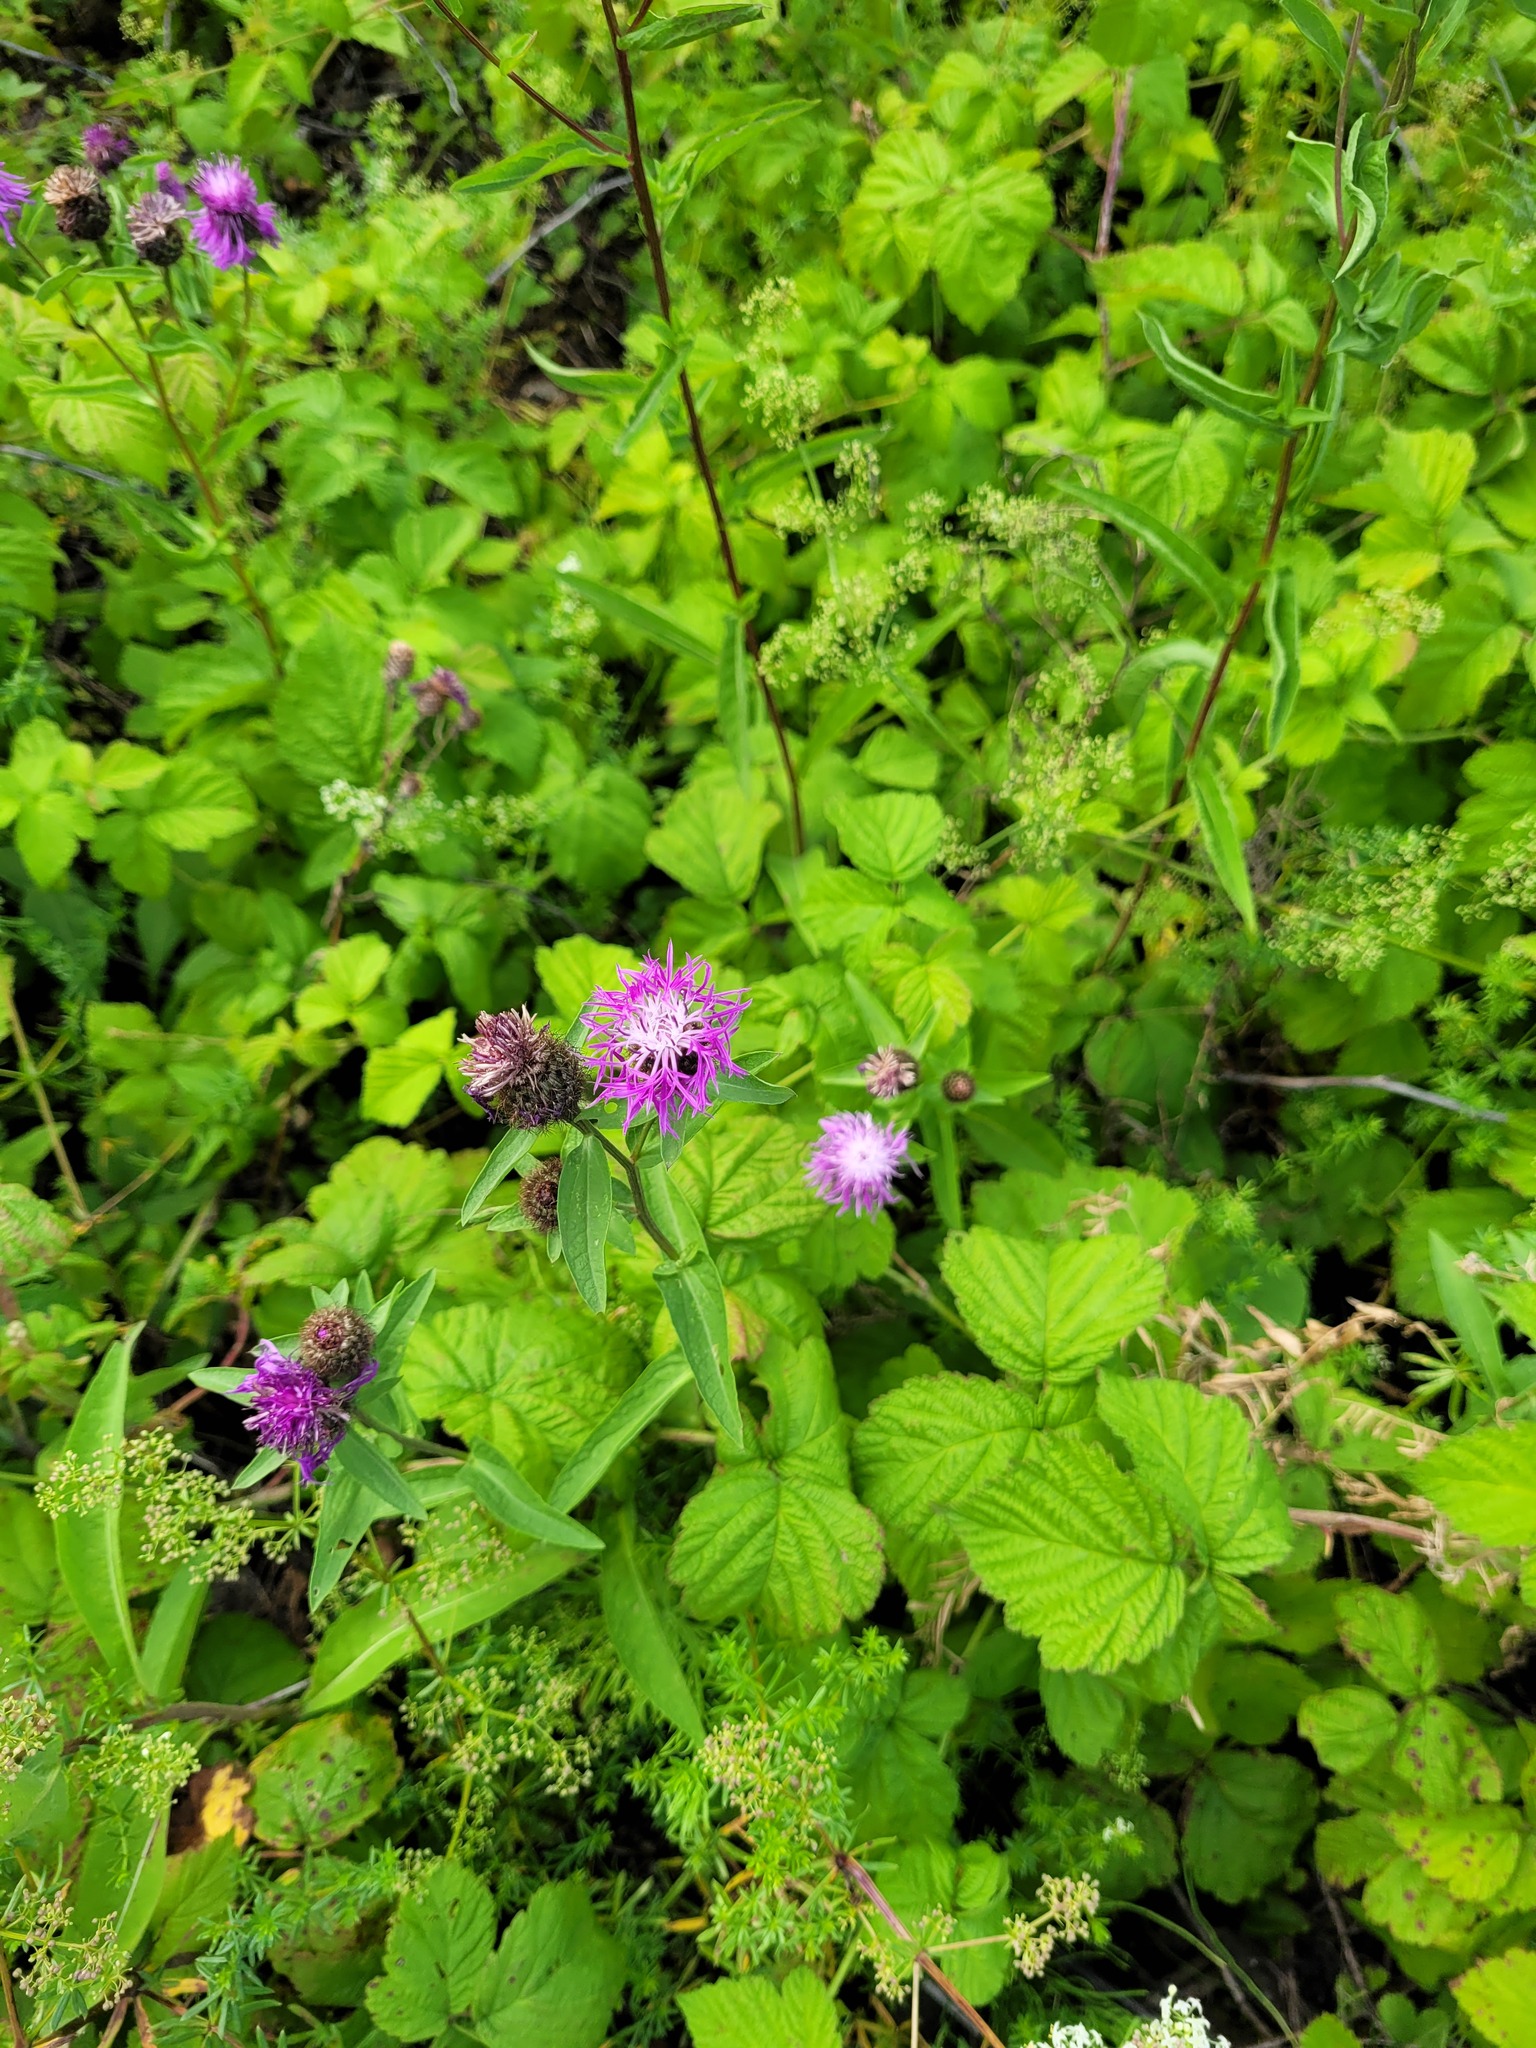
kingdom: Plantae
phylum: Tracheophyta
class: Magnoliopsida
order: Asterales
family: Asteraceae
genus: Centaurea
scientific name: Centaurea phrygia
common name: Wig knapweed
